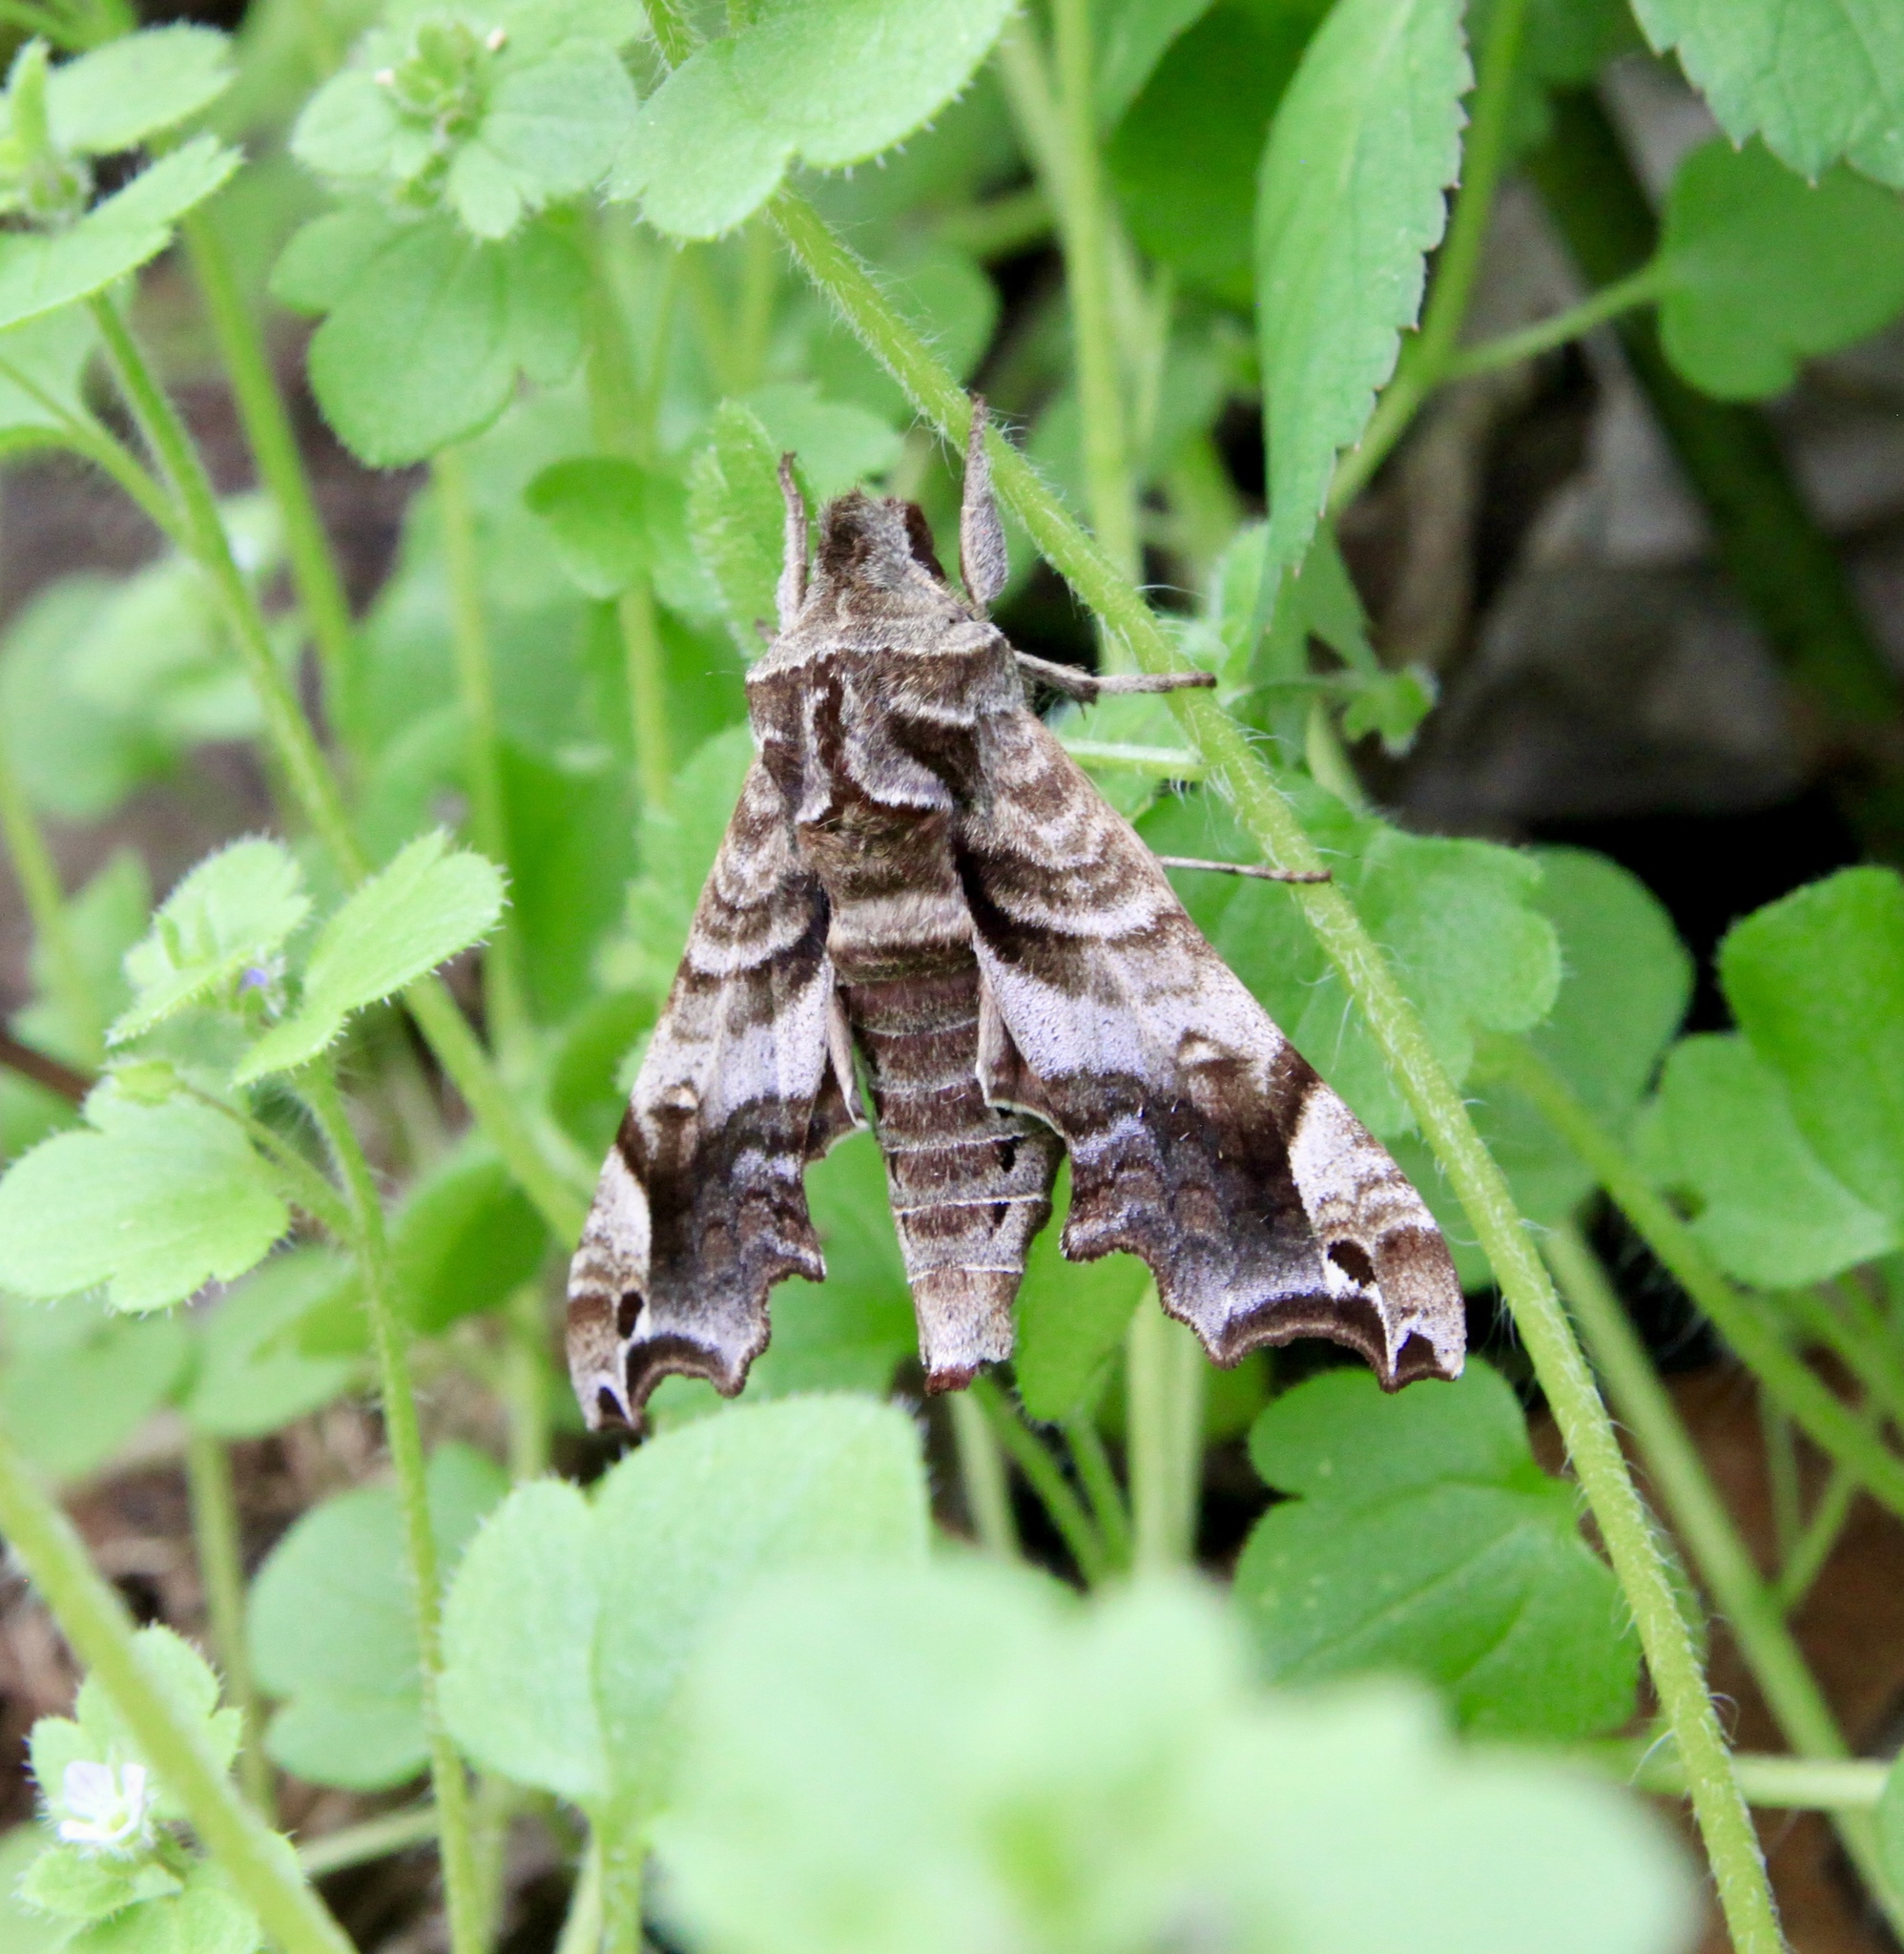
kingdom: Animalia
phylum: Arthropoda
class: Insecta
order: Lepidoptera
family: Sphingidae
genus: Deidamia
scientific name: Deidamia inscriptum
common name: Lettered sphinx
